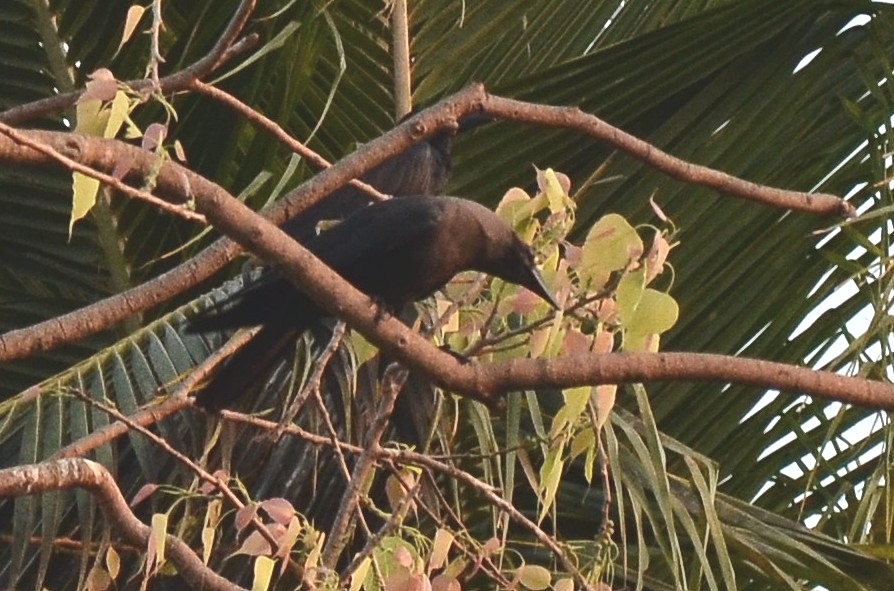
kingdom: Animalia
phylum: Chordata
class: Aves
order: Passeriformes
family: Corvidae
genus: Corvus
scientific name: Corvus splendens
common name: House crow
